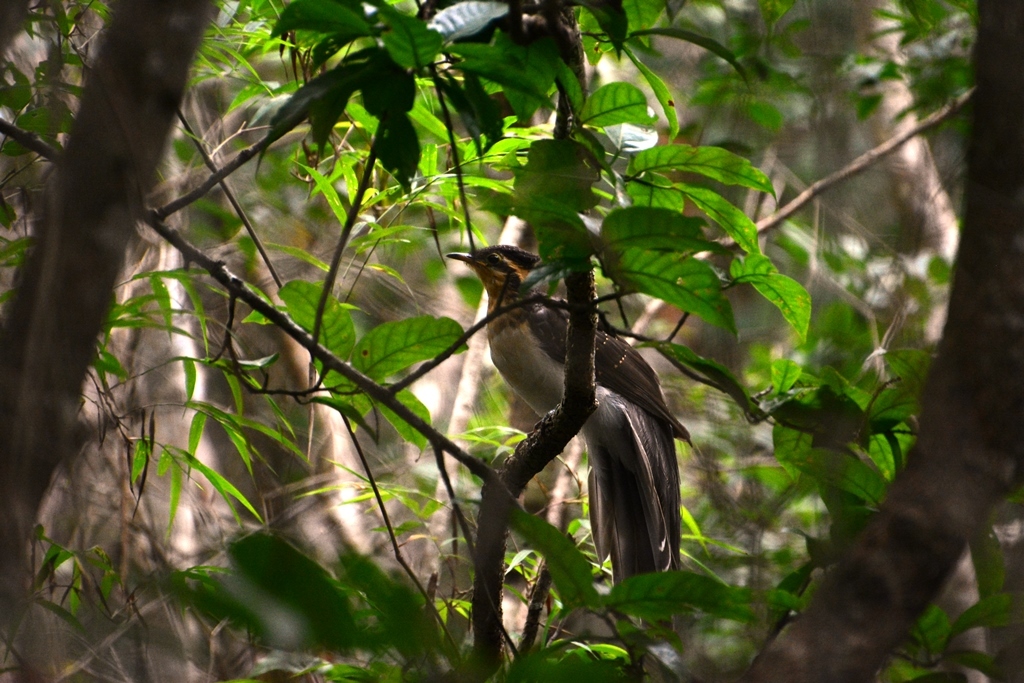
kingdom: Animalia
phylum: Chordata
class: Aves
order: Cuculiformes
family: Cuculidae
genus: Dromococcyx
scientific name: Dromococcyx phasianellus
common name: Pheasant cuckoo
